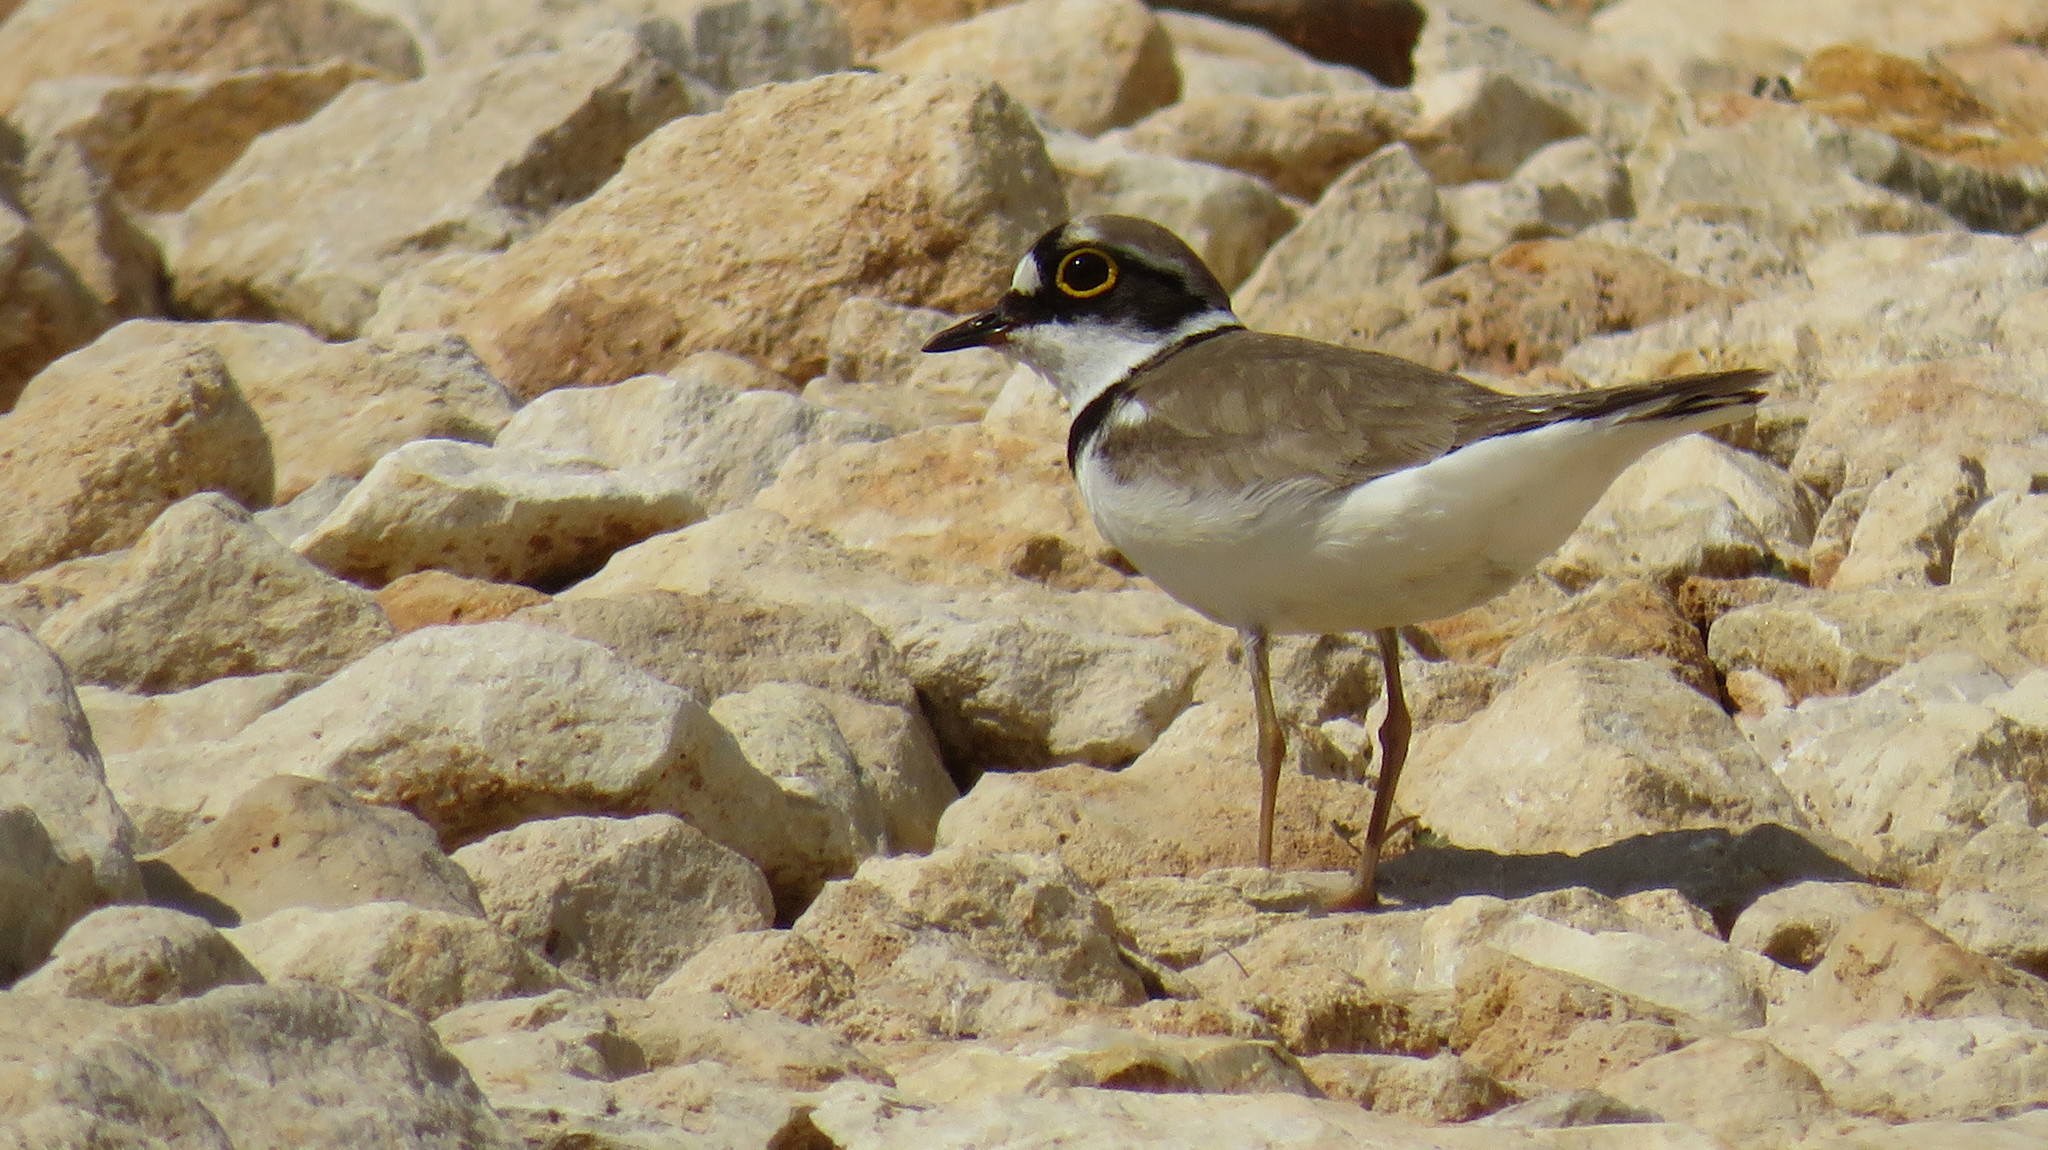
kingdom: Animalia
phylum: Chordata
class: Aves
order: Charadriiformes
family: Charadriidae
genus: Charadrius
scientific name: Charadrius dubius
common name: Little ringed plover
